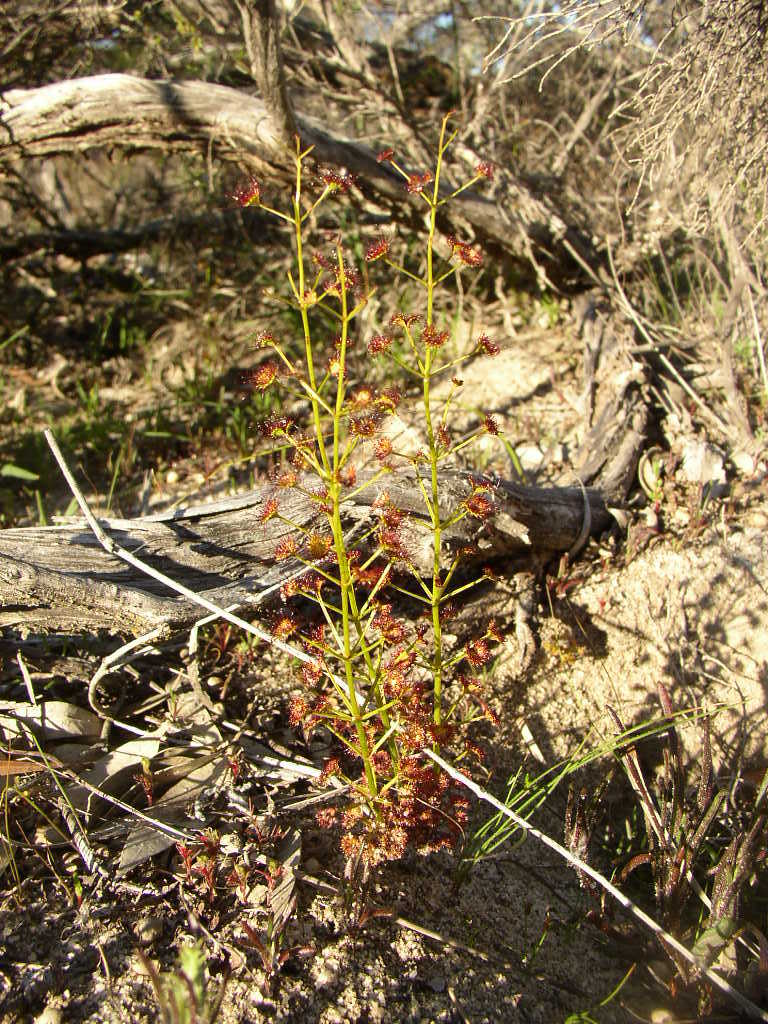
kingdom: Plantae
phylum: Tracheophyta
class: Magnoliopsida
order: Caryophyllales
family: Droseraceae
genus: Drosera
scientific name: Drosera stolonifera
